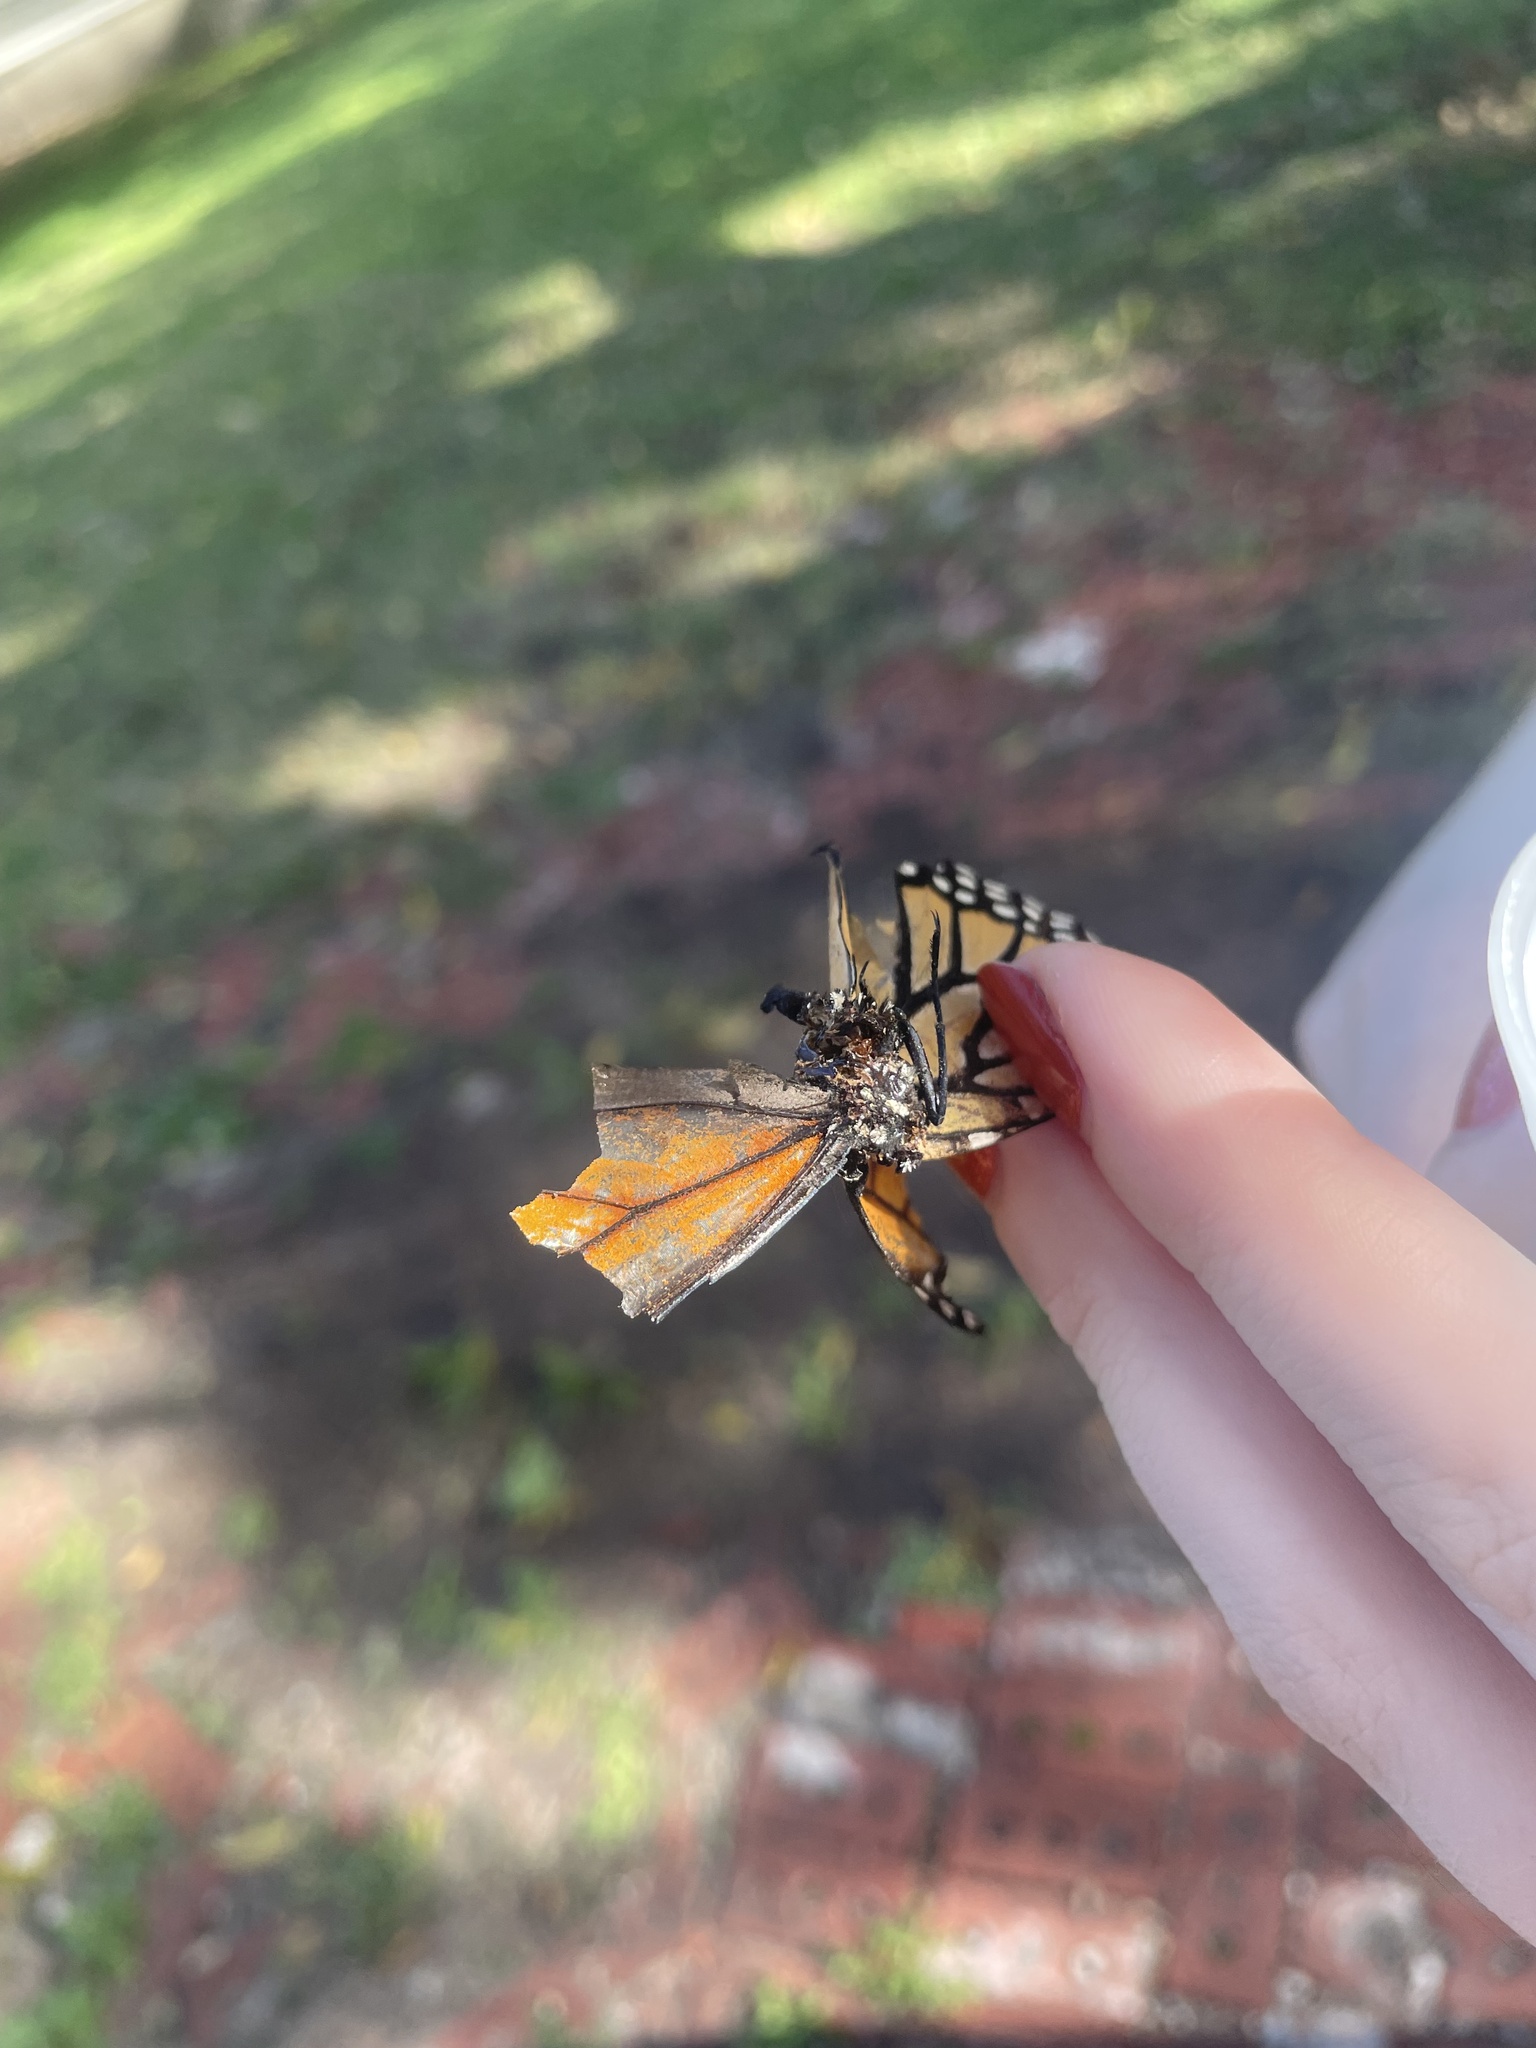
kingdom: Animalia
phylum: Arthropoda
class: Insecta
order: Lepidoptera
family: Nymphalidae
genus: Danaus
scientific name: Danaus plexippus
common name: Monarch
